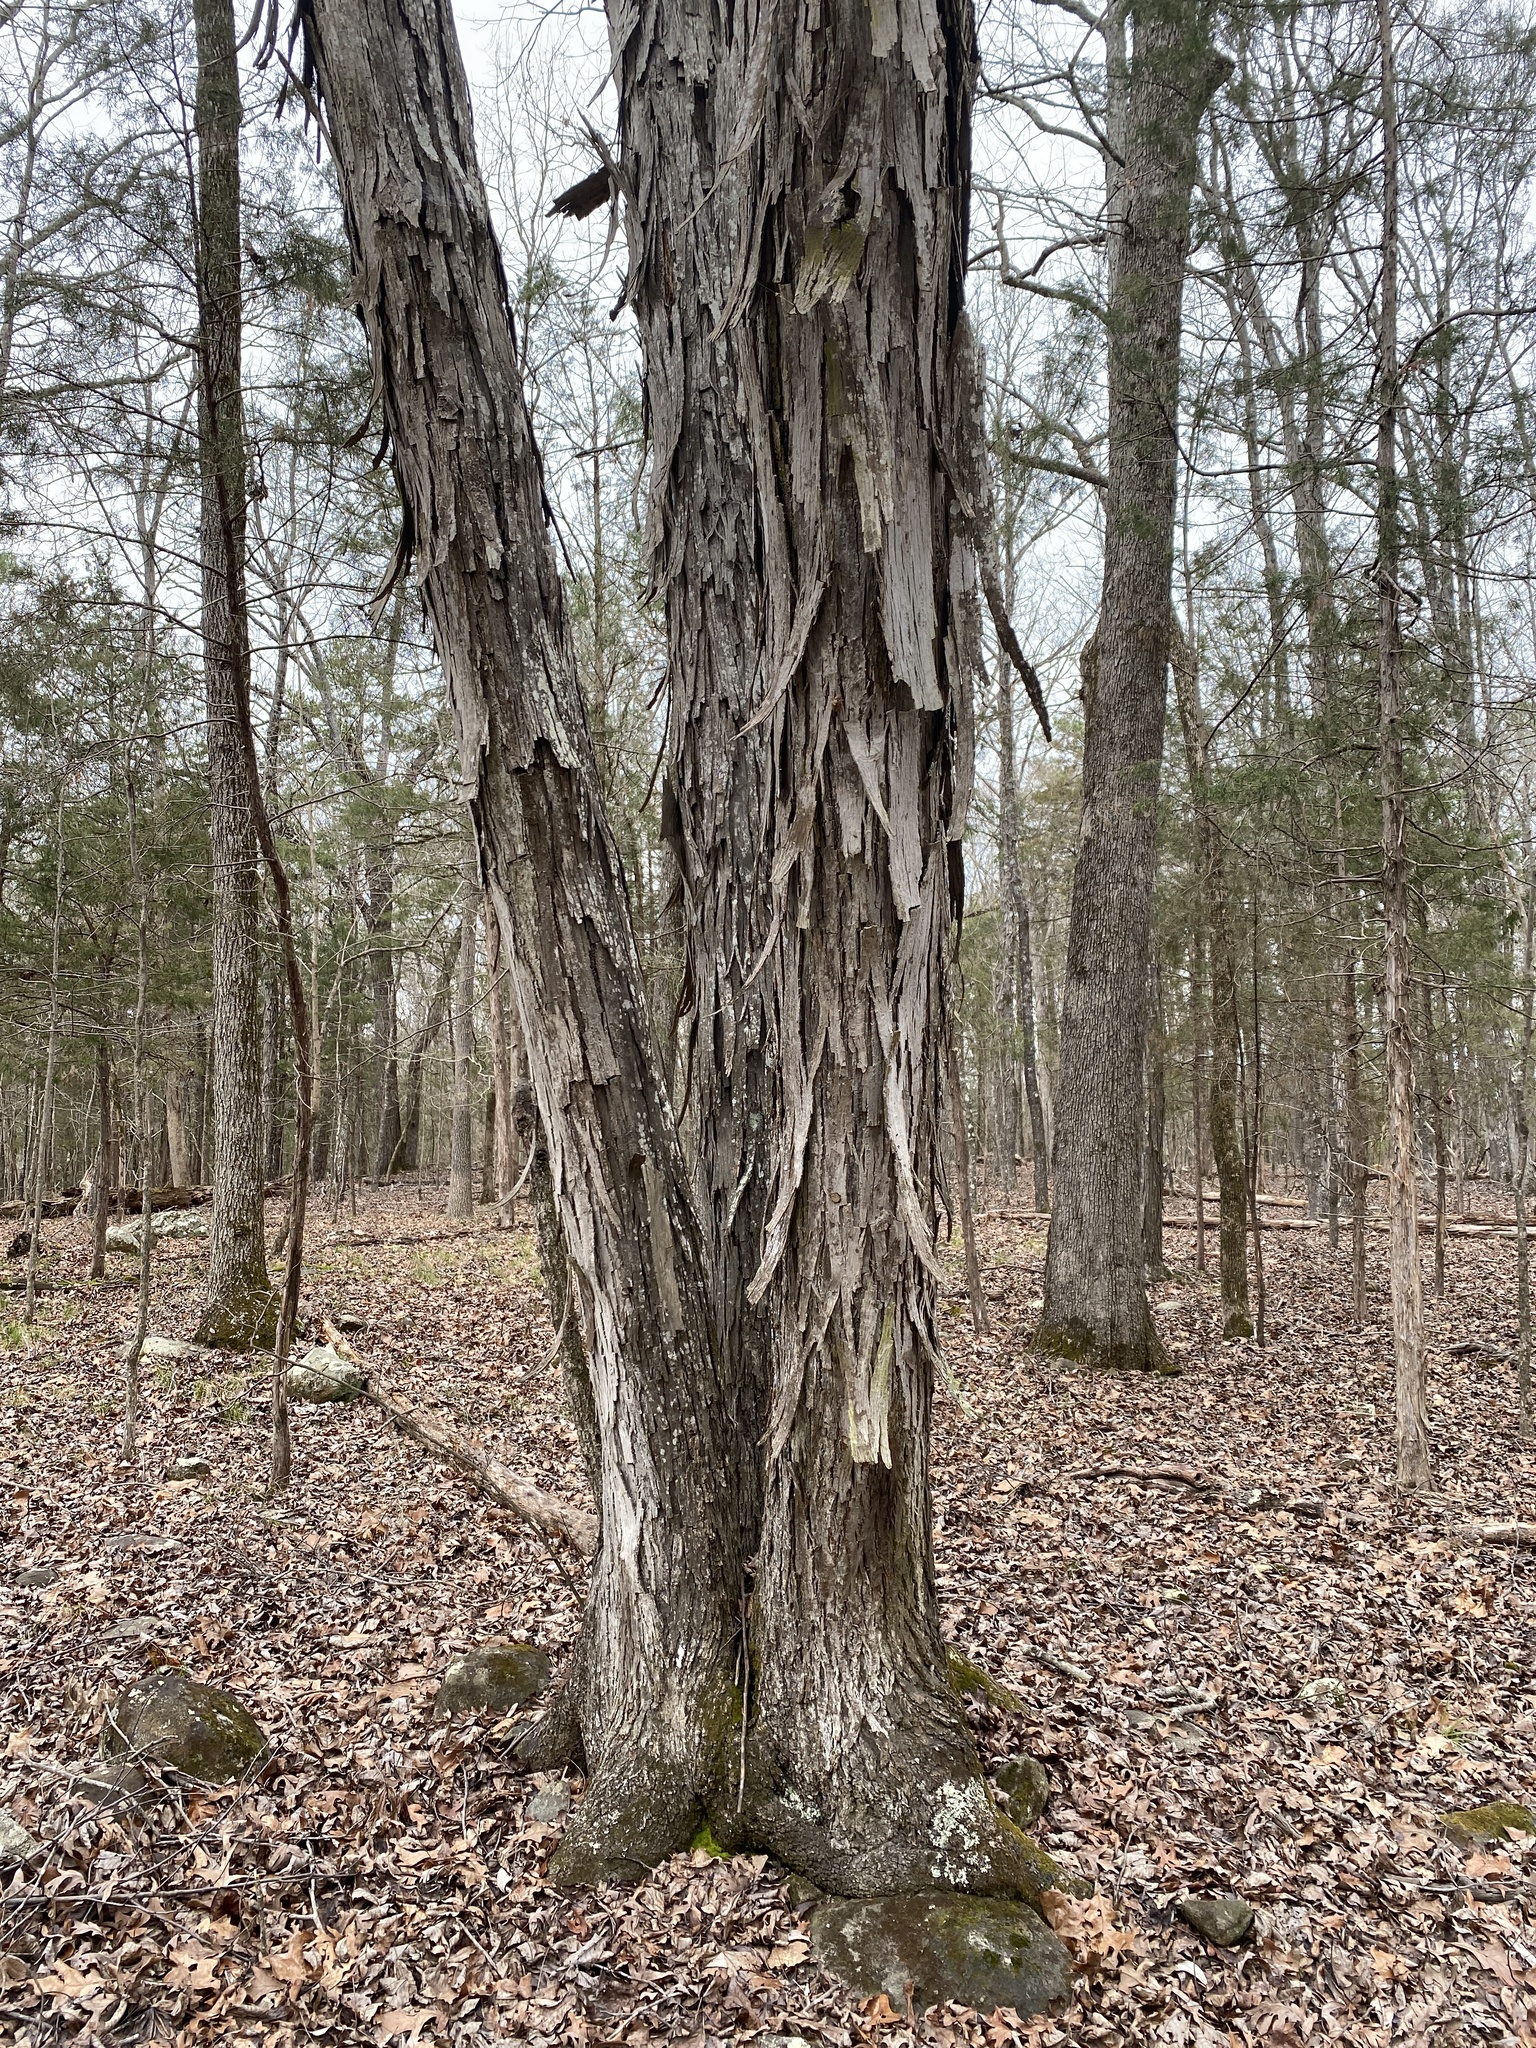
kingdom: Plantae
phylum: Tracheophyta
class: Magnoliopsida
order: Fagales
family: Juglandaceae
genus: Carya
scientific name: Carya carolinae-septentrionalis
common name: Carolina hickory
